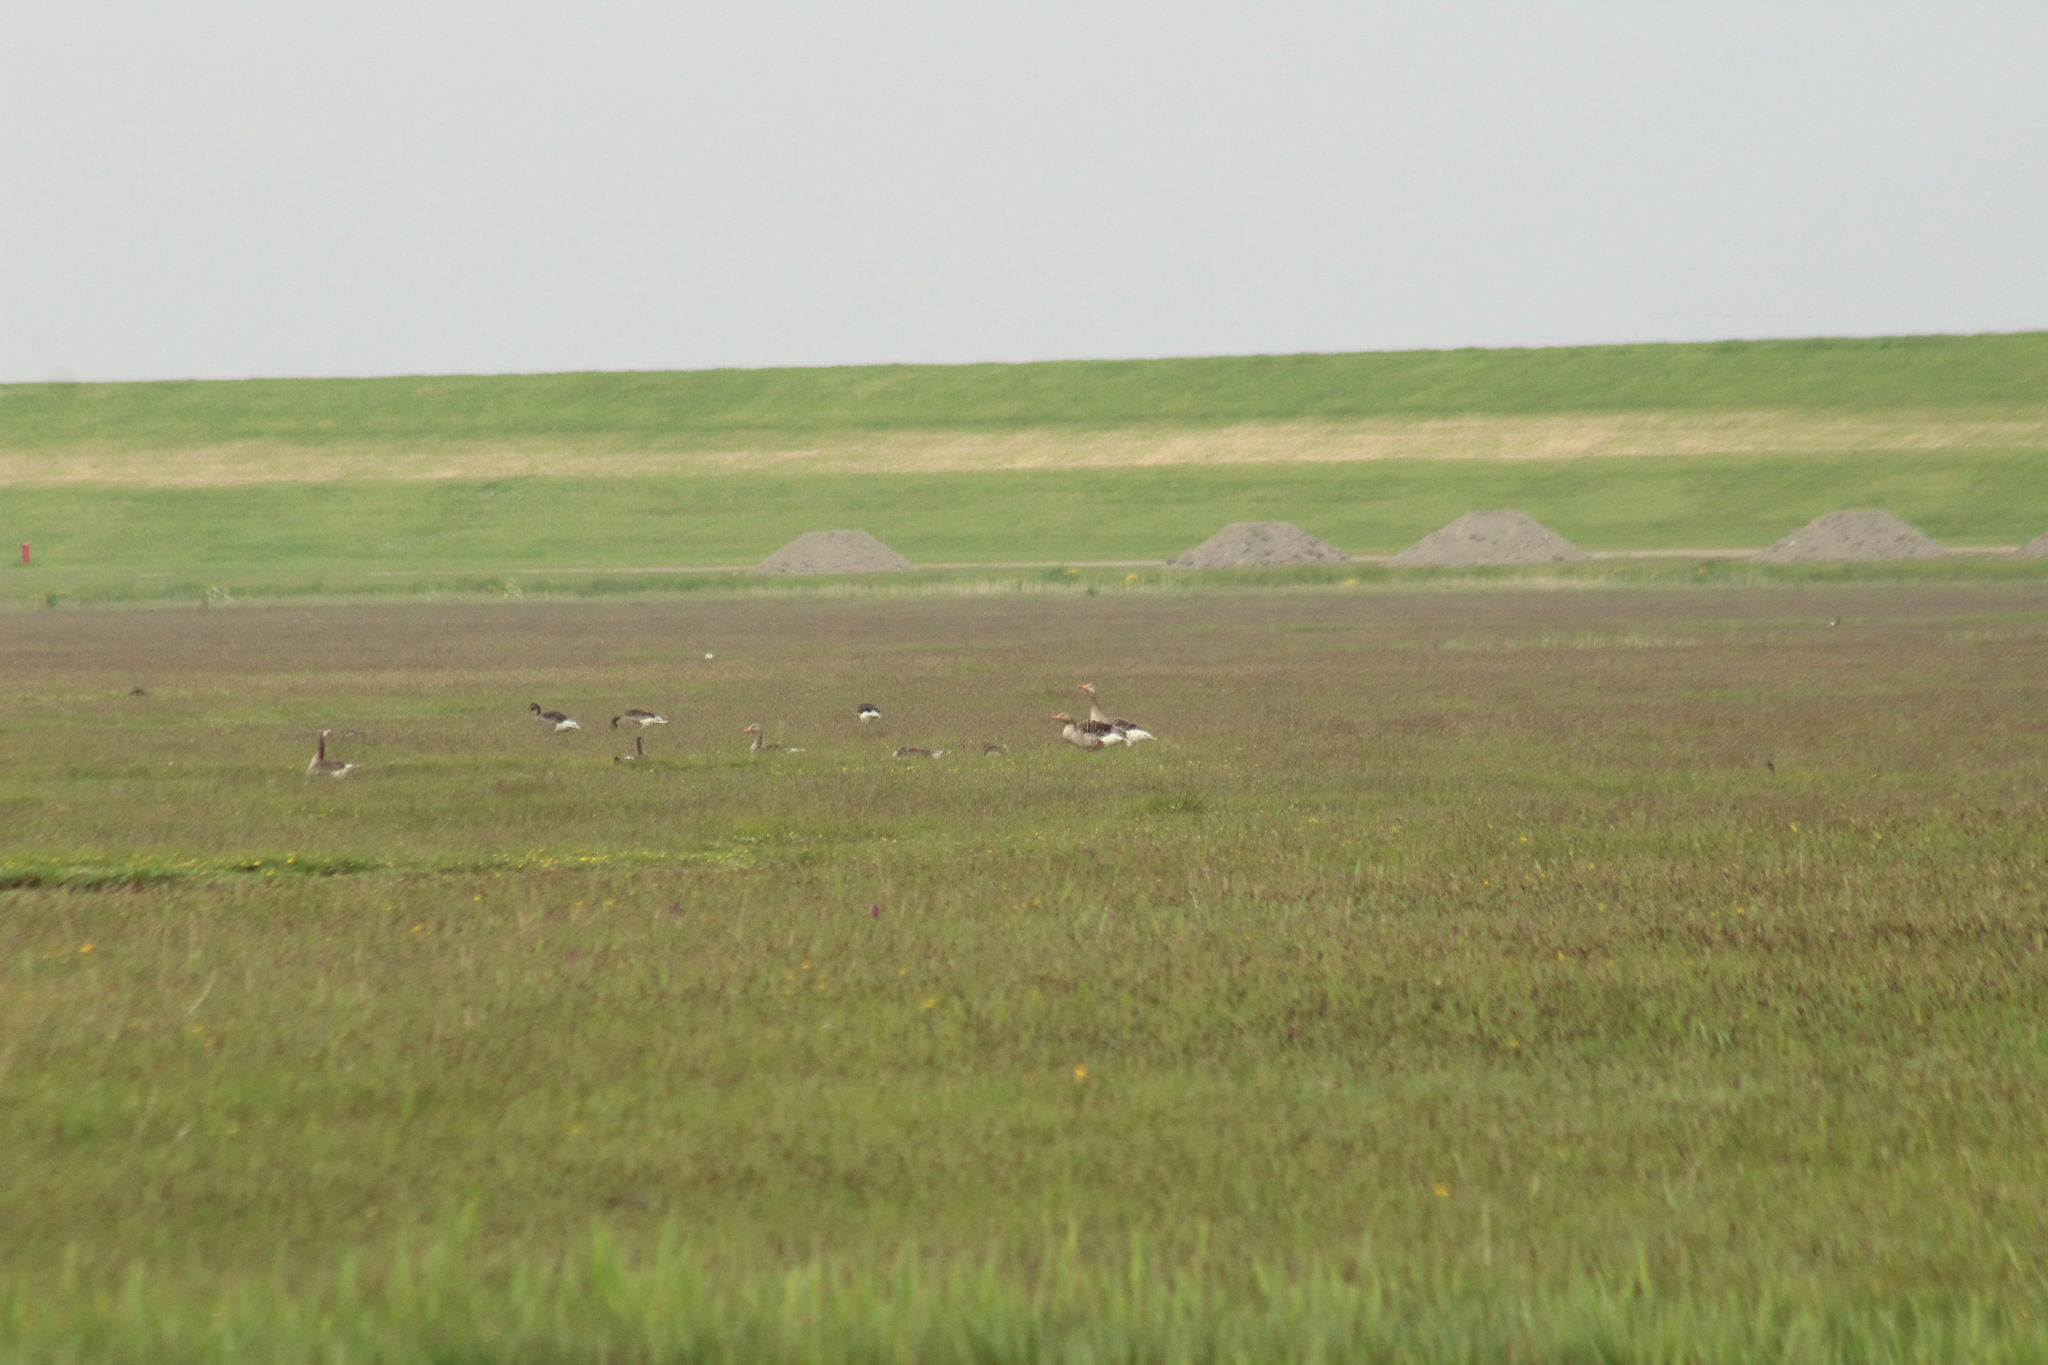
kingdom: Animalia
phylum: Chordata
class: Aves
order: Anseriformes
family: Anatidae
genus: Anser
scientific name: Anser anser
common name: Greylag goose
